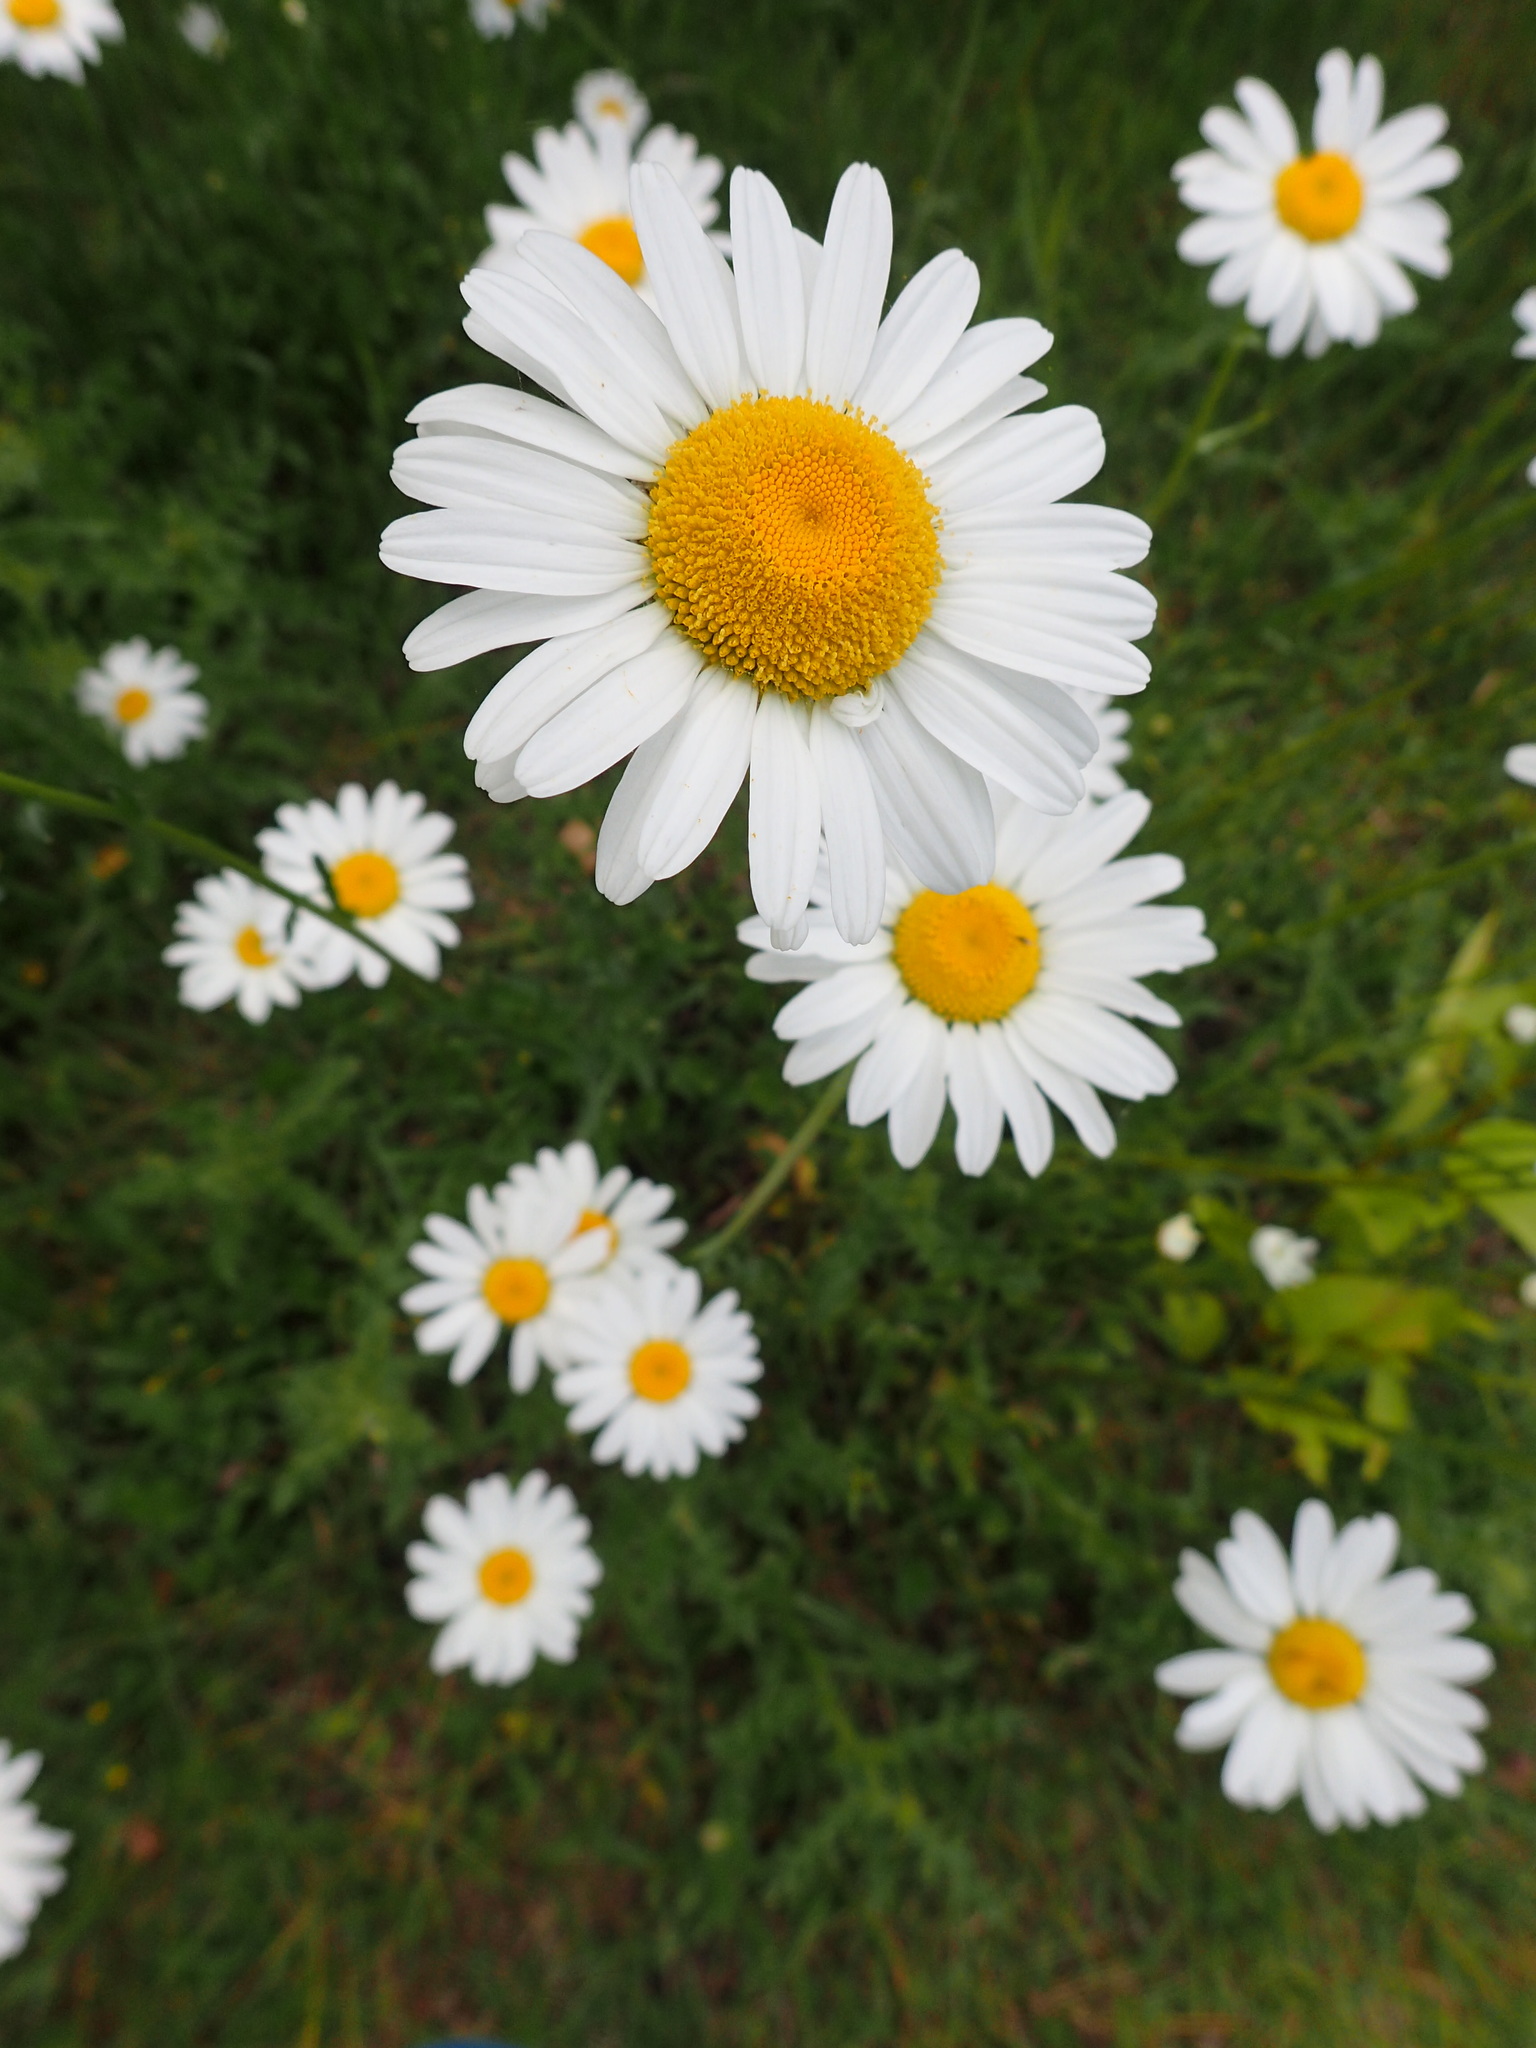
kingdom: Plantae
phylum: Tracheophyta
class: Magnoliopsida
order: Asterales
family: Asteraceae
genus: Leucanthemum
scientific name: Leucanthemum vulgare
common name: Oxeye daisy
